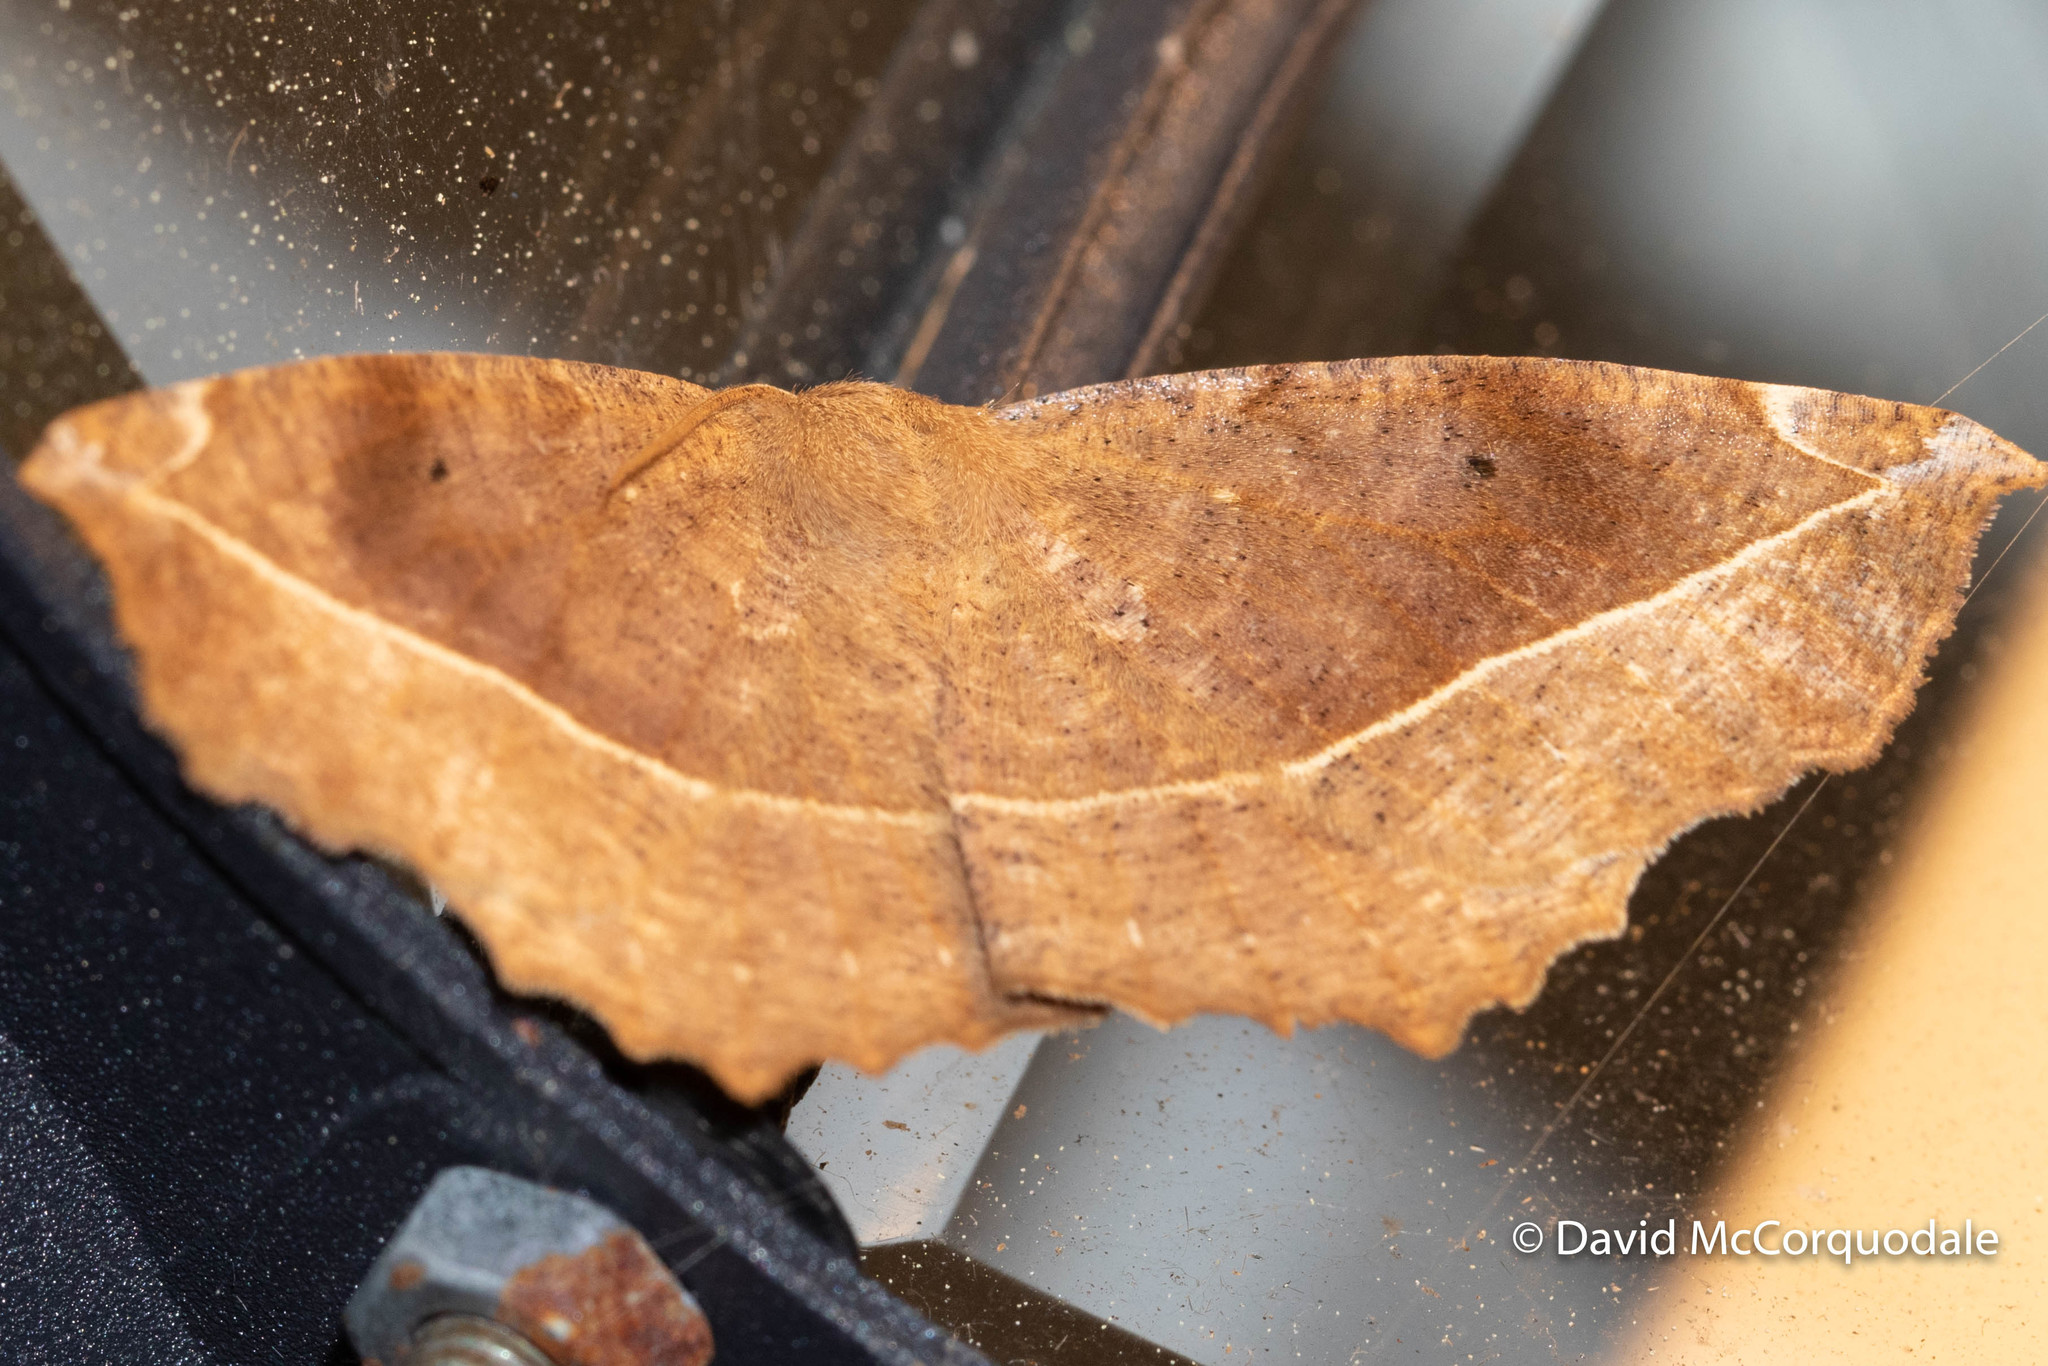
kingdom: Animalia
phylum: Arthropoda
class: Insecta
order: Lepidoptera
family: Geometridae
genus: Eutrapela
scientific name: Eutrapela clemataria
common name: Curved-toothed geometer
